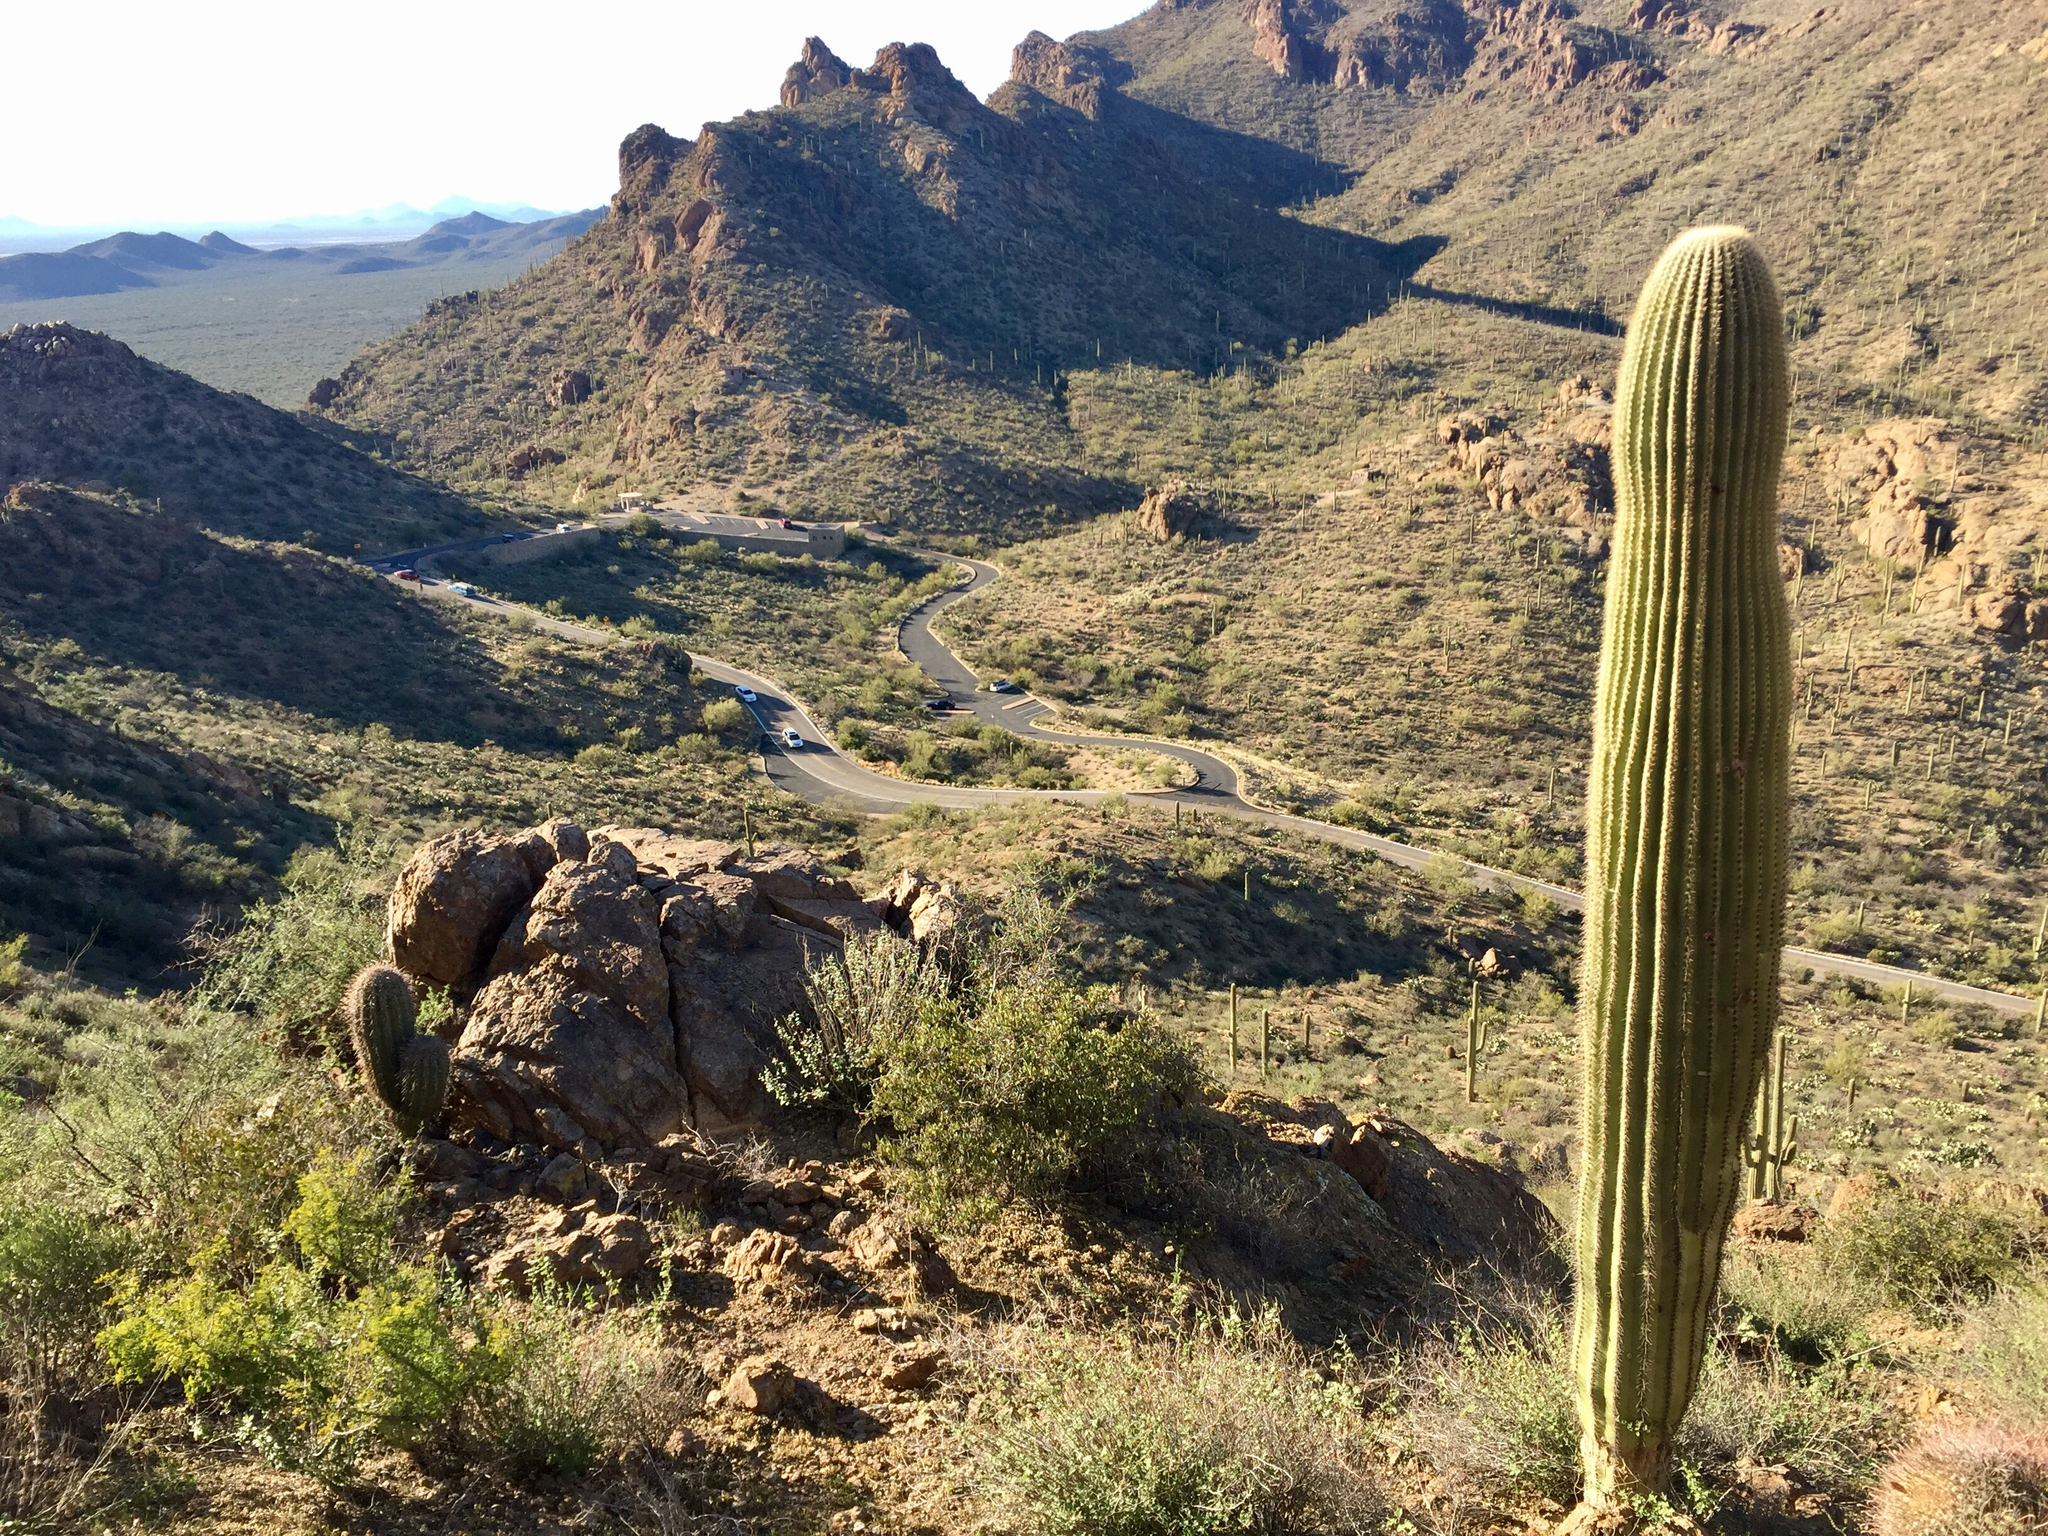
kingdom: Plantae
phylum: Tracheophyta
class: Magnoliopsida
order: Caryophyllales
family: Cactaceae
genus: Carnegiea
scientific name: Carnegiea gigantea
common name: Saguaro
